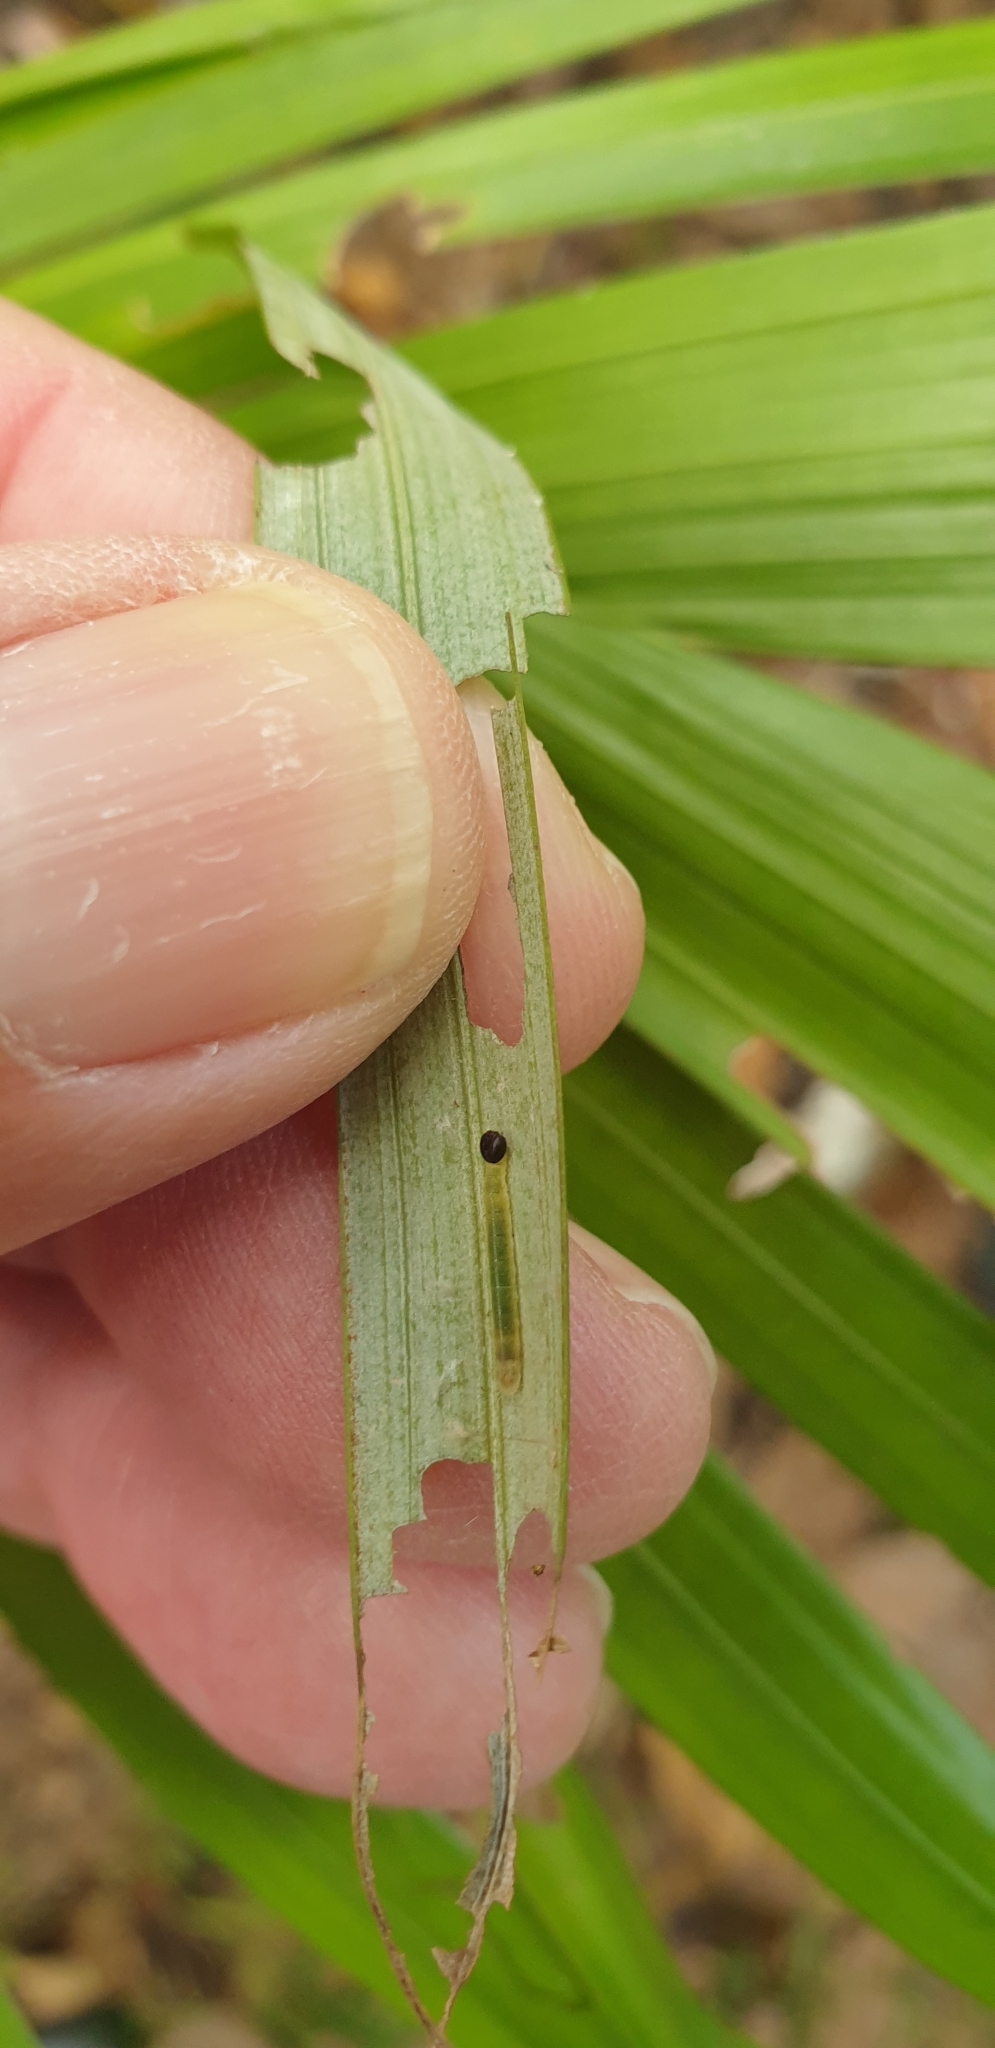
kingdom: Animalia
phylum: Arthropoda
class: Insecta
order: Lepidoptera
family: Hesperiidae
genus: Cephrenes
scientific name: Cephrenes trichopepla
